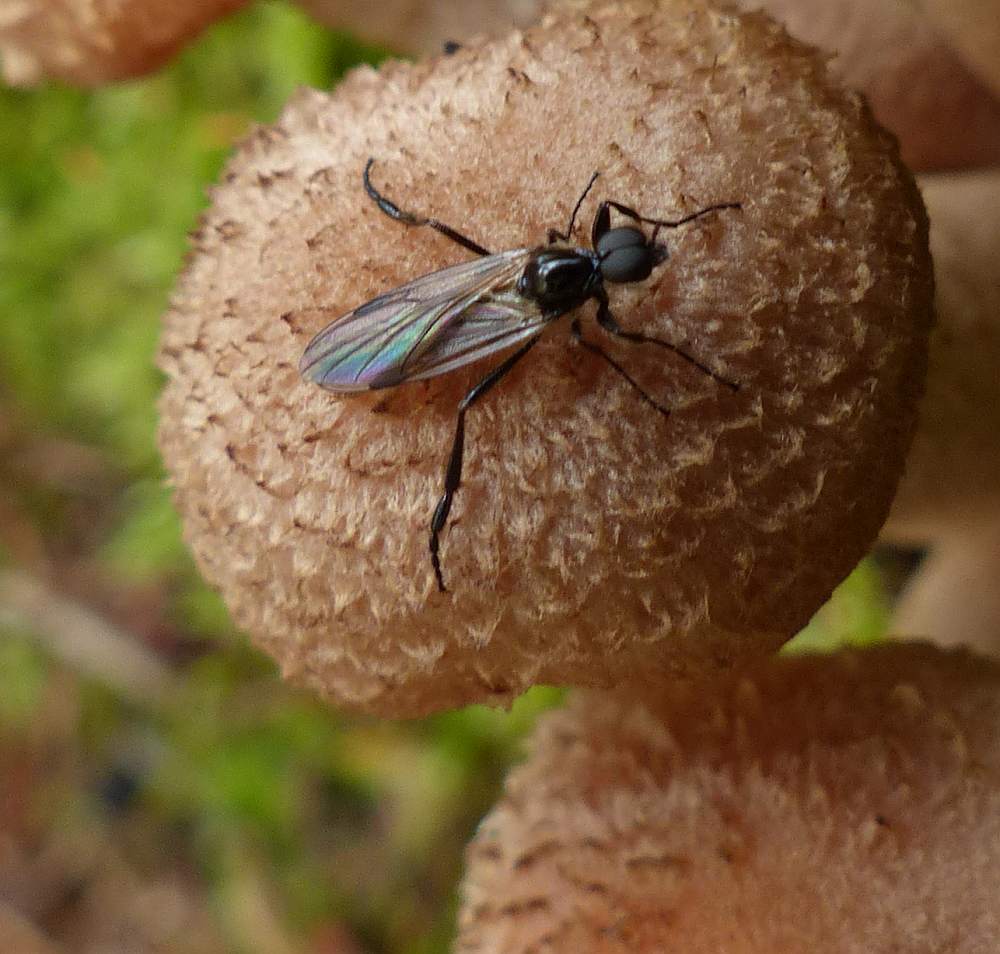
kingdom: Animalia
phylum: Arthropoda
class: Insecta
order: Diptera
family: Bibionidae
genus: Bibio
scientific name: Bibio
